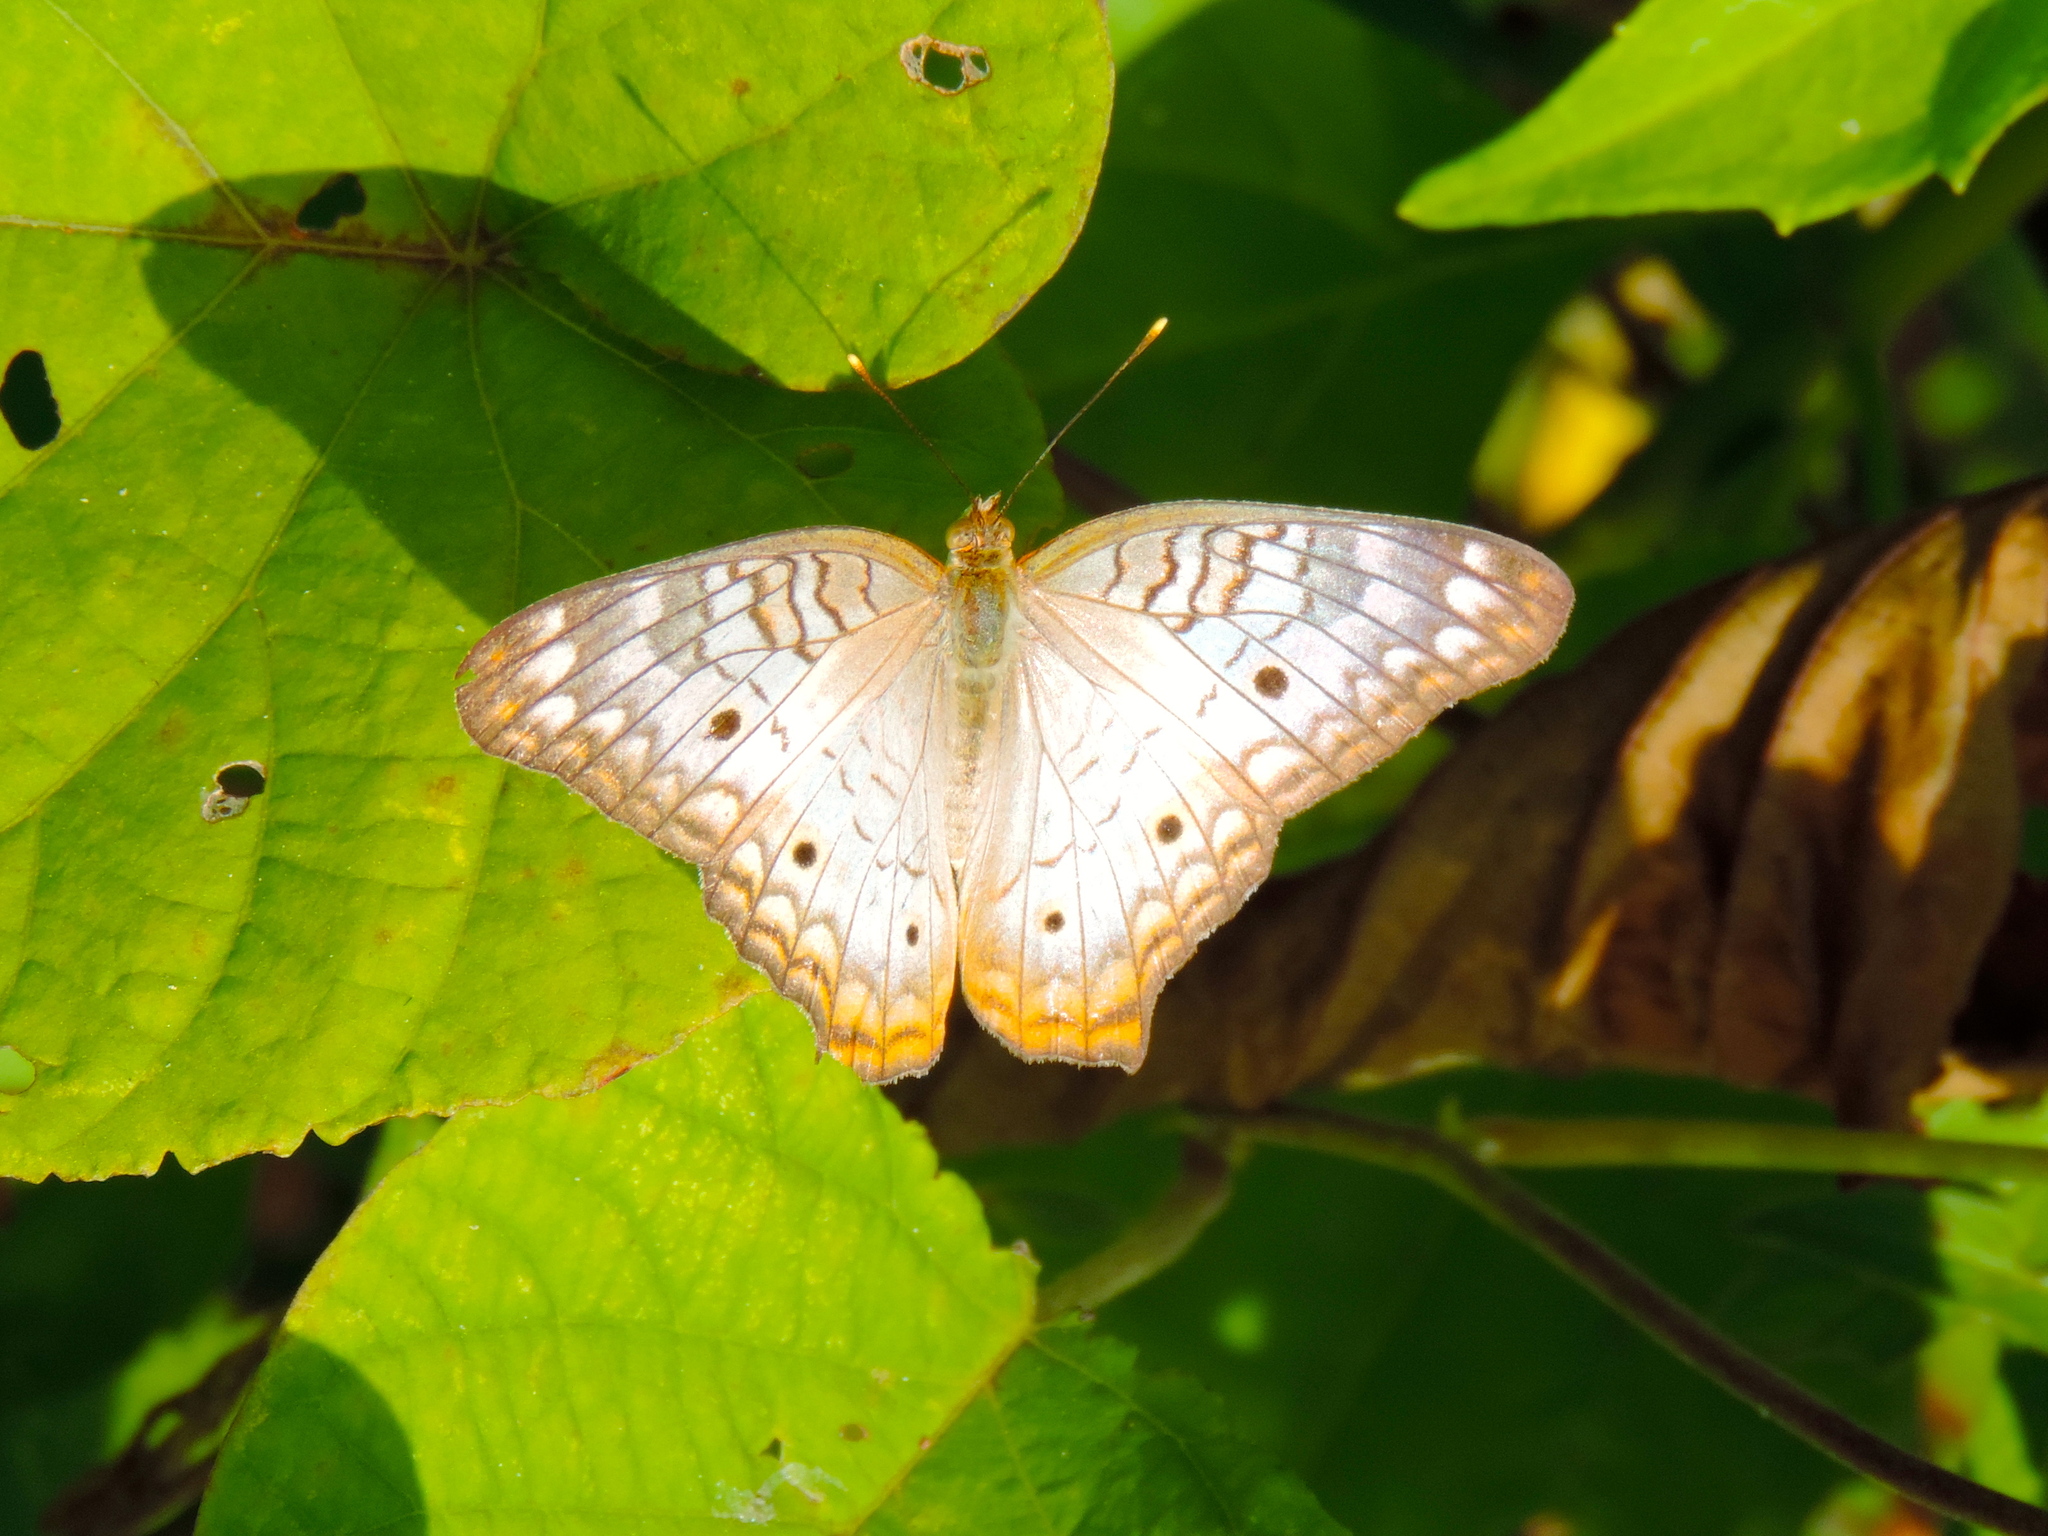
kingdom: Animalia
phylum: Arthropoda
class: Insecta
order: Lepidoptera
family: Nymphalidae
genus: Anartia
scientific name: Anartia jatrophae
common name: White peacock
